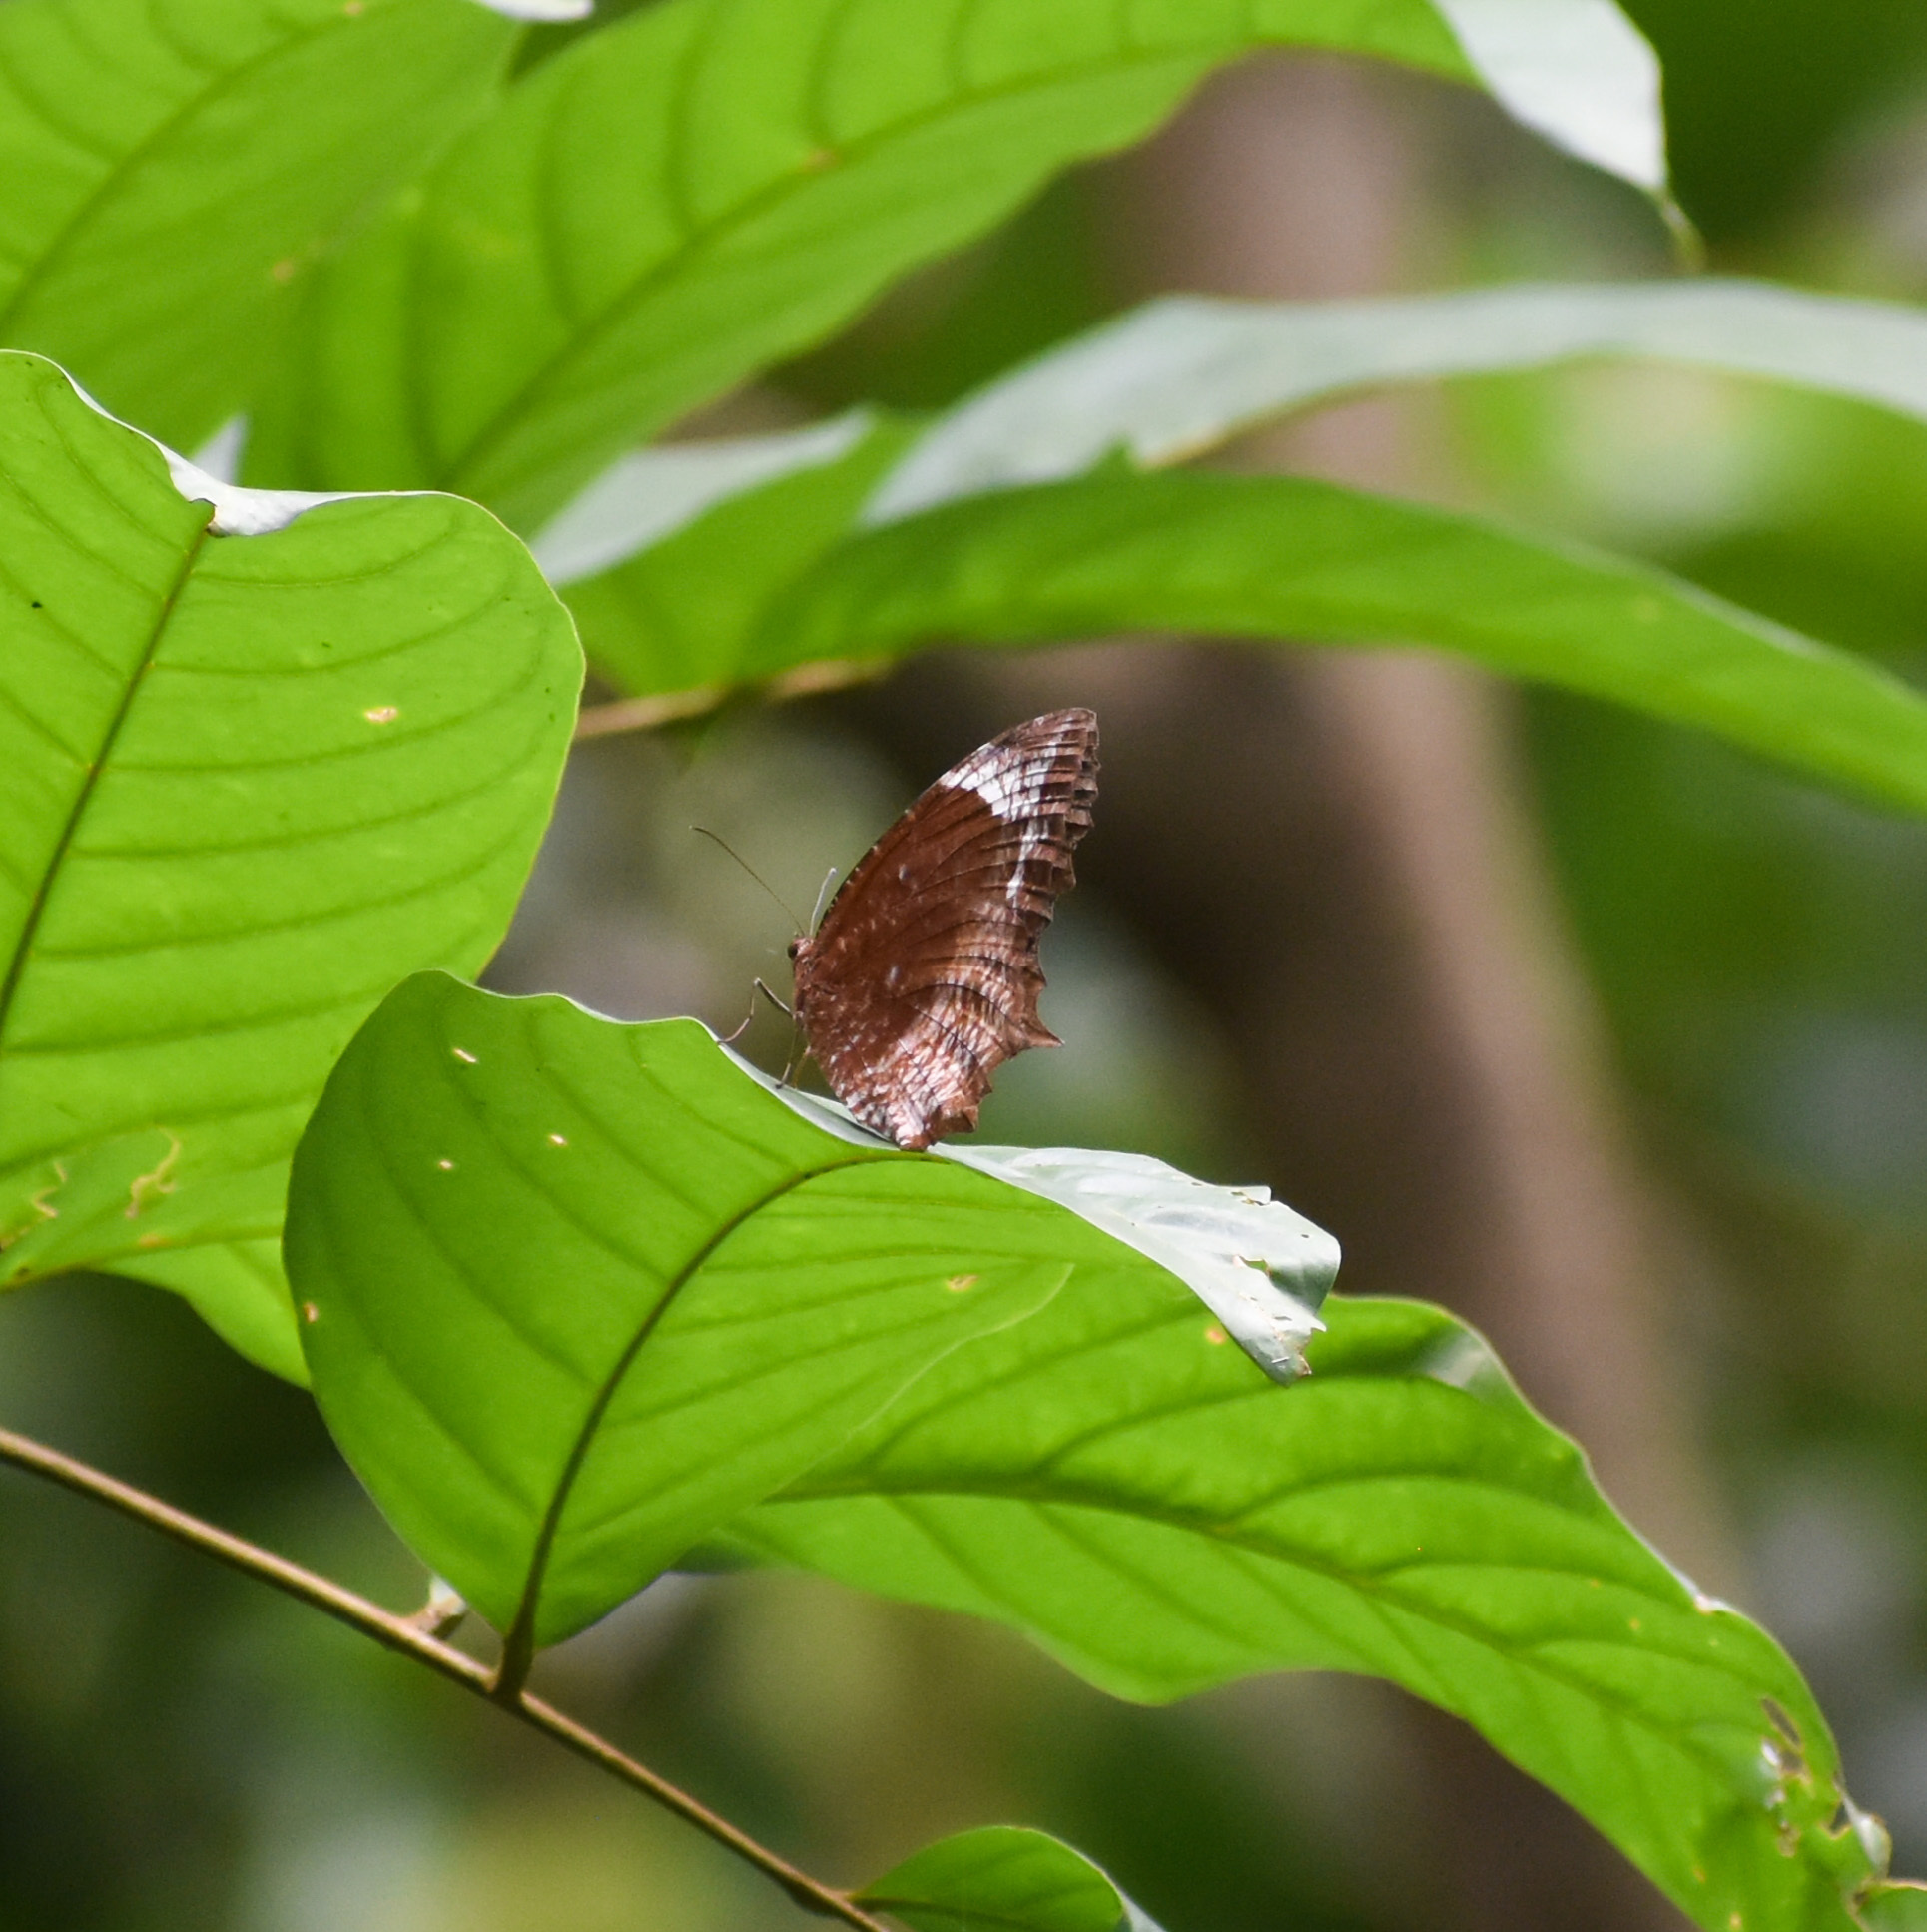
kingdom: Animalia
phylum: Arthropoda
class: Insecta
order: Lepidoptera
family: Nymphalidae
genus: Elymnias
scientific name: Elymnias caudata
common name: Tailed palmfly
